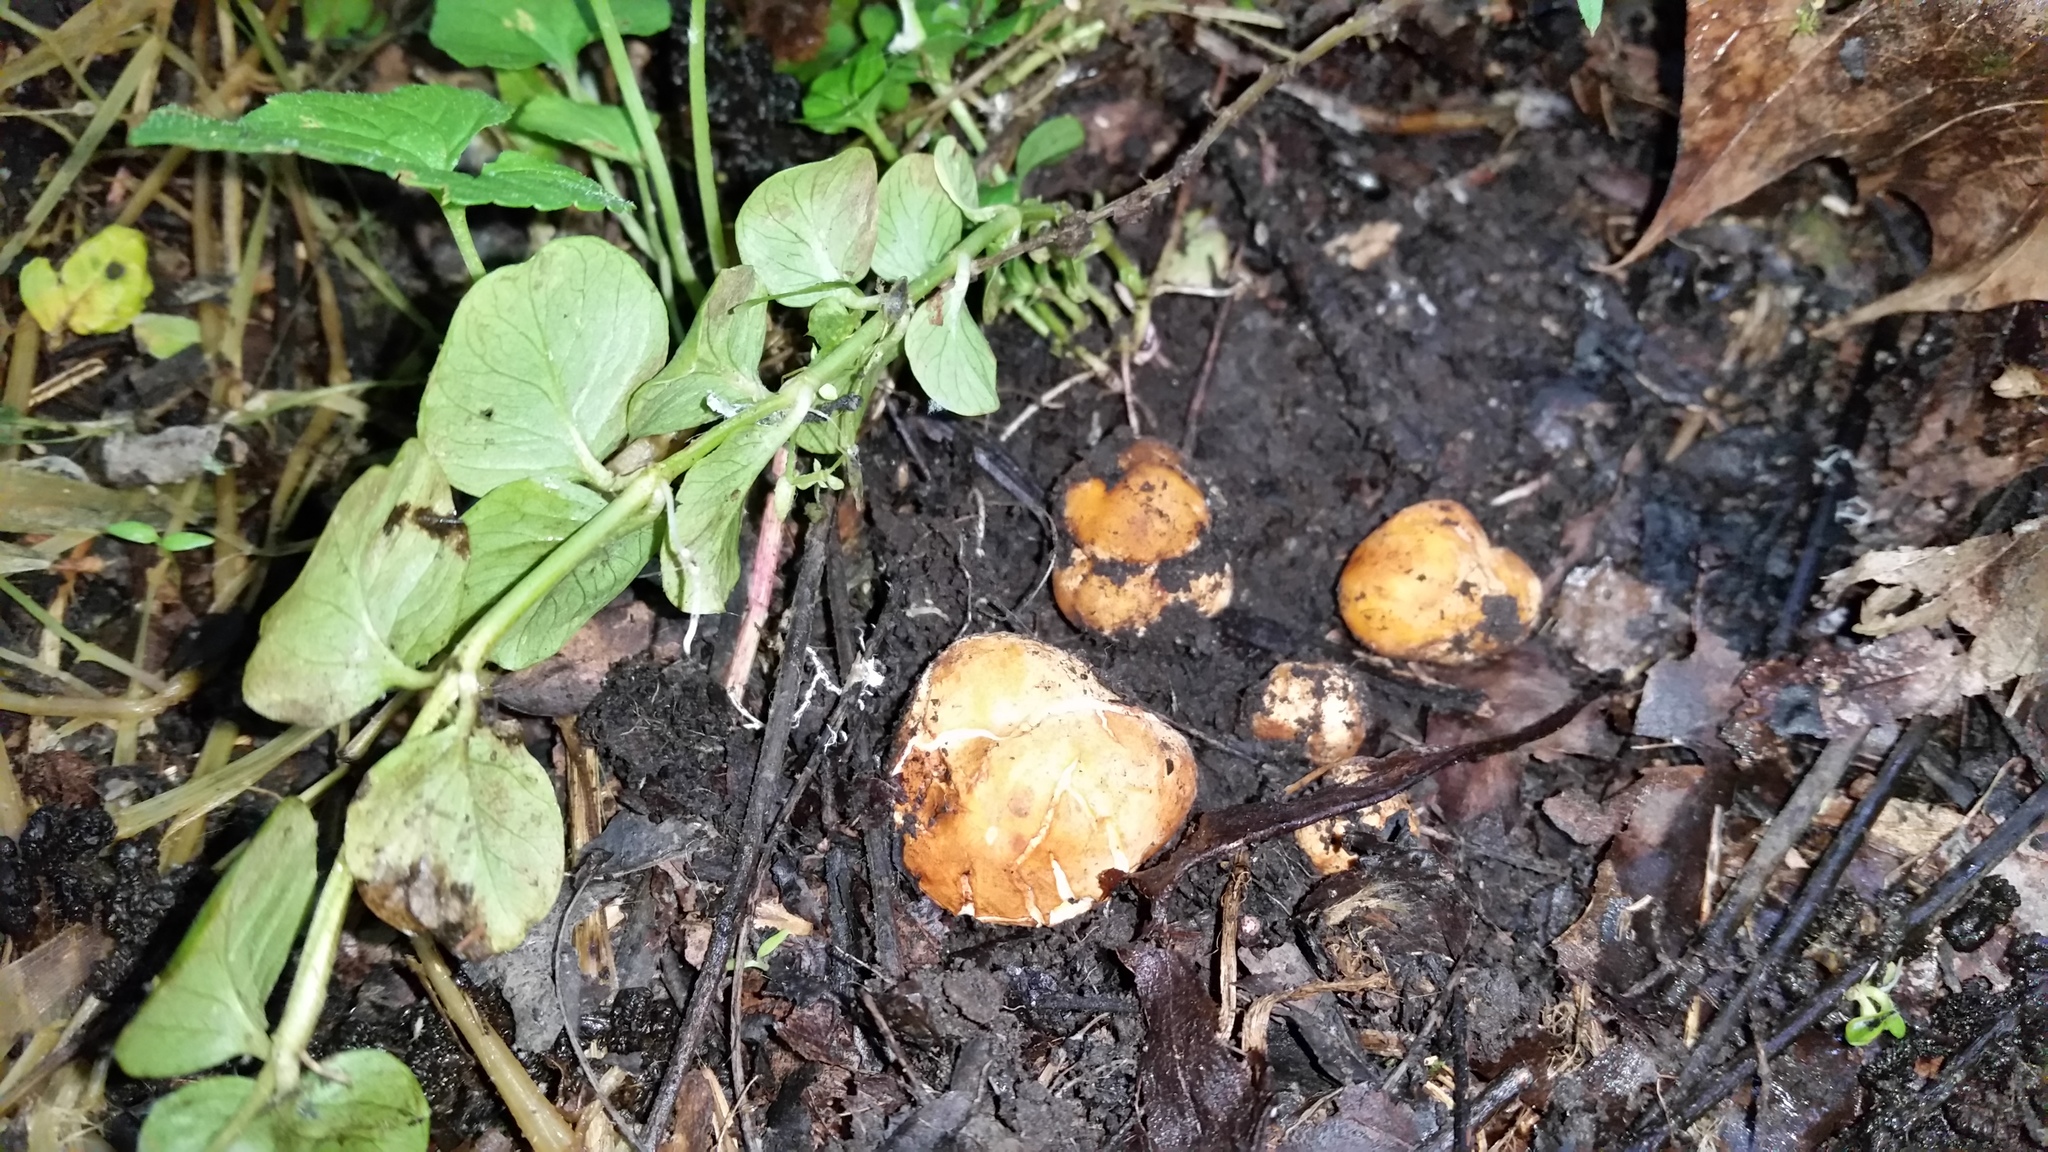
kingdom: Fungi
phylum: Ascomycota
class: Pezizomycetes
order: Pezizales
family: Pyronemataceae
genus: Densocarpa
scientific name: Densocarpa shanorii
